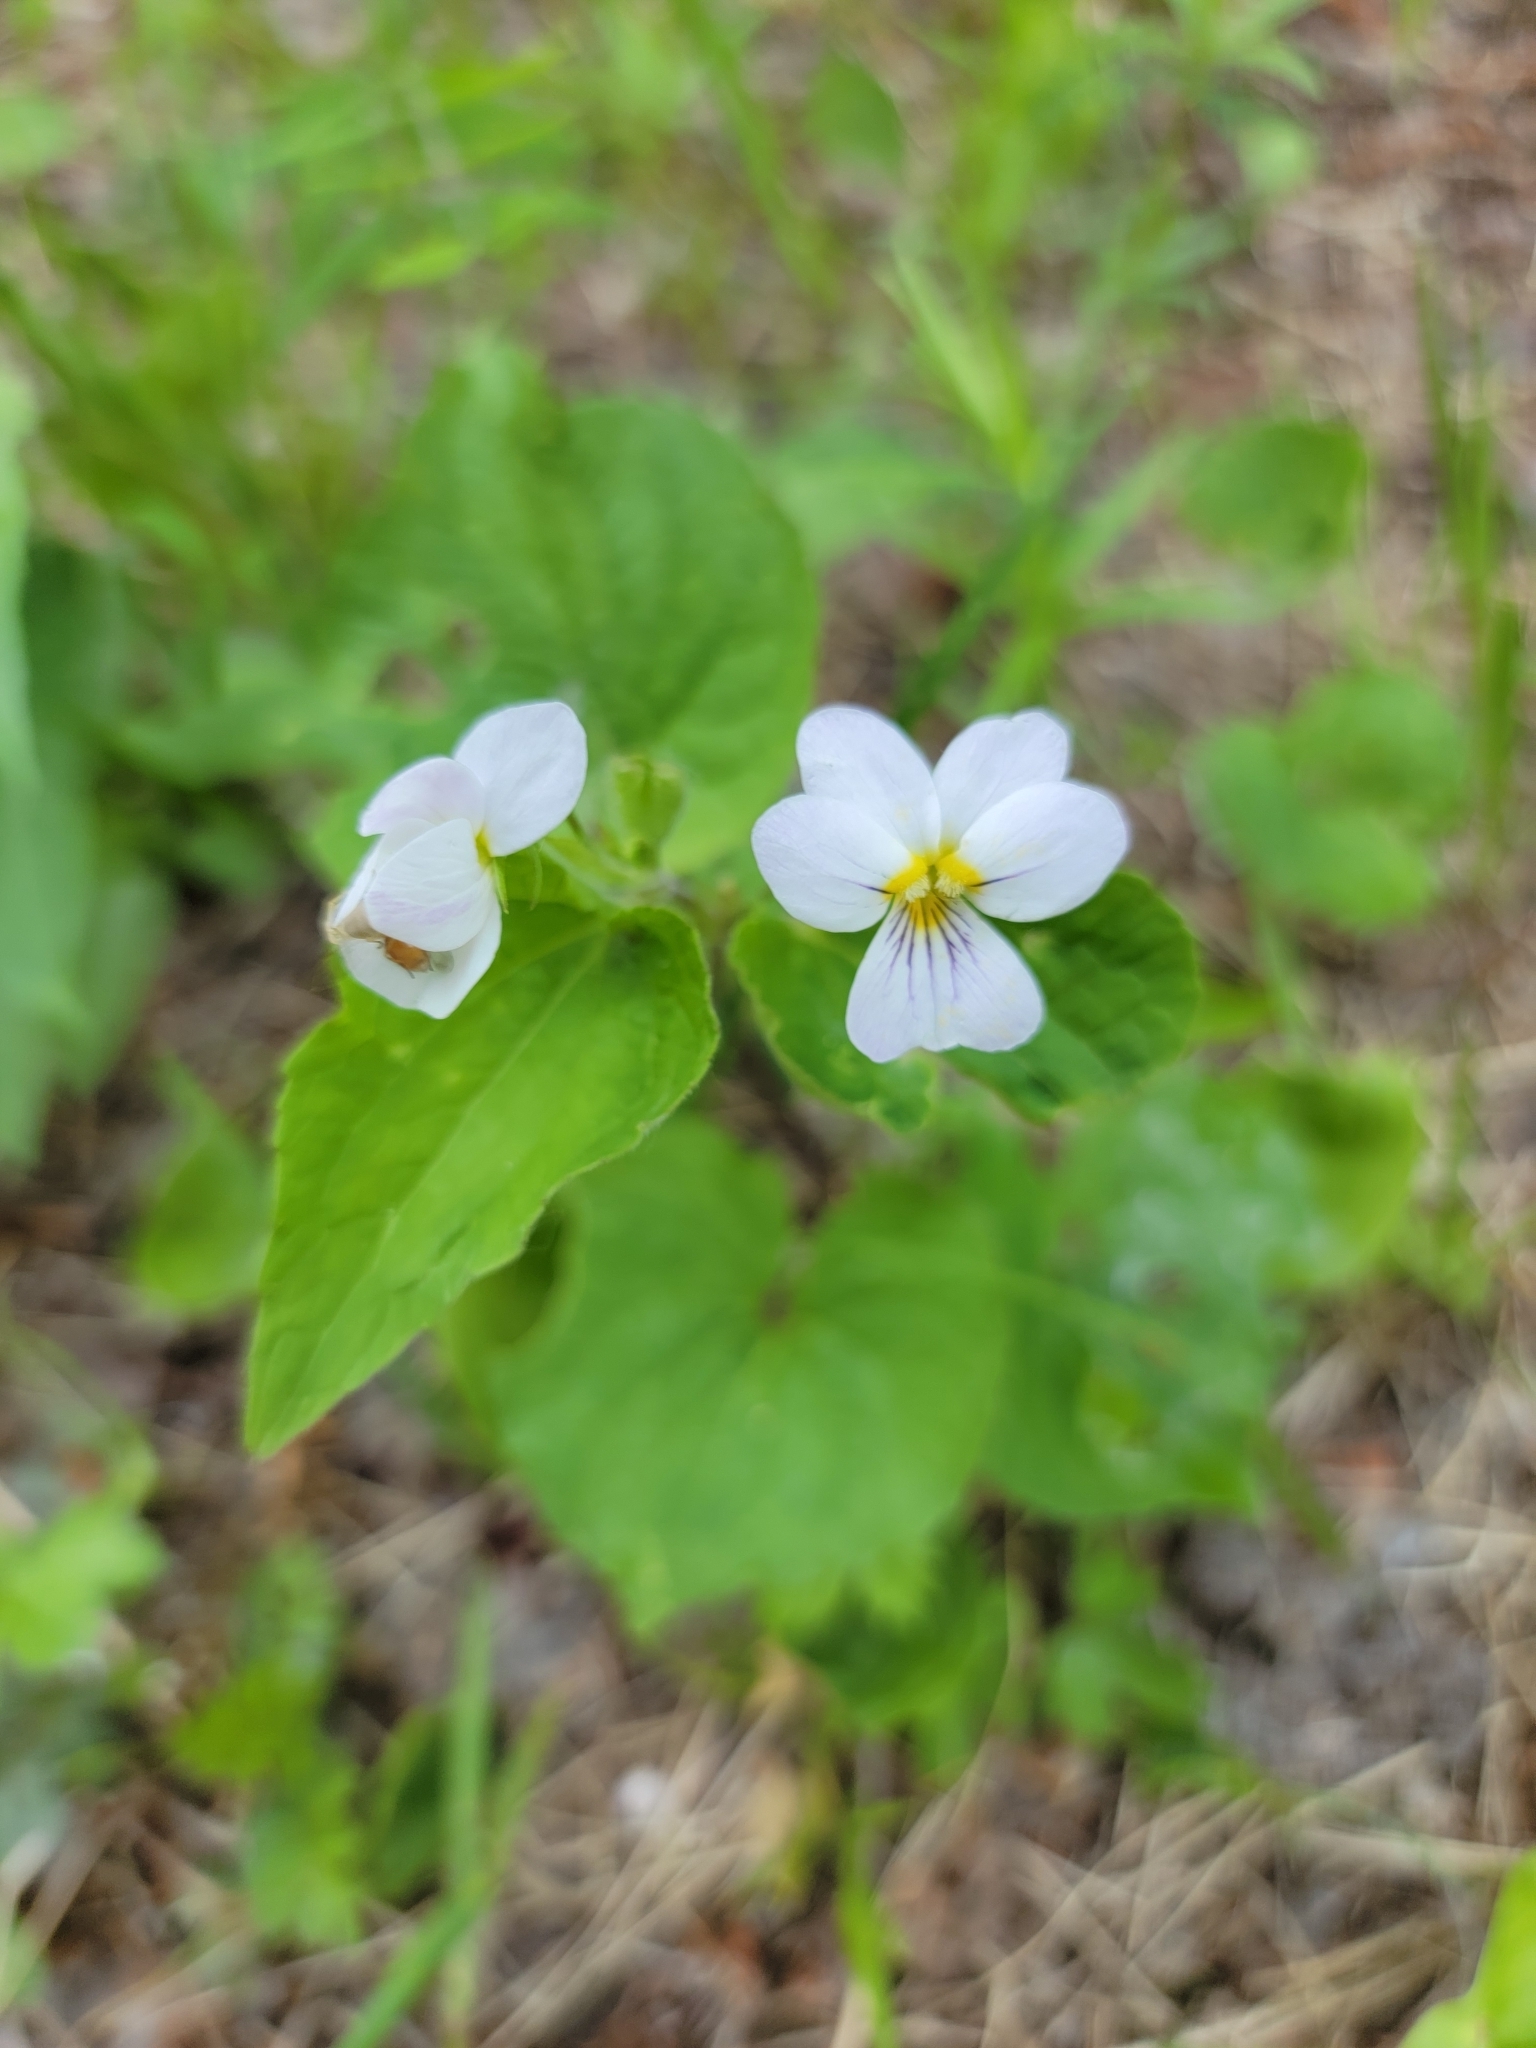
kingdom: Plantae
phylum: Tracheophyta
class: Magnoliopsida
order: Malpighiales
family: Violaceae
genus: Viola
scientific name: Viola canadensis
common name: Canada violet
